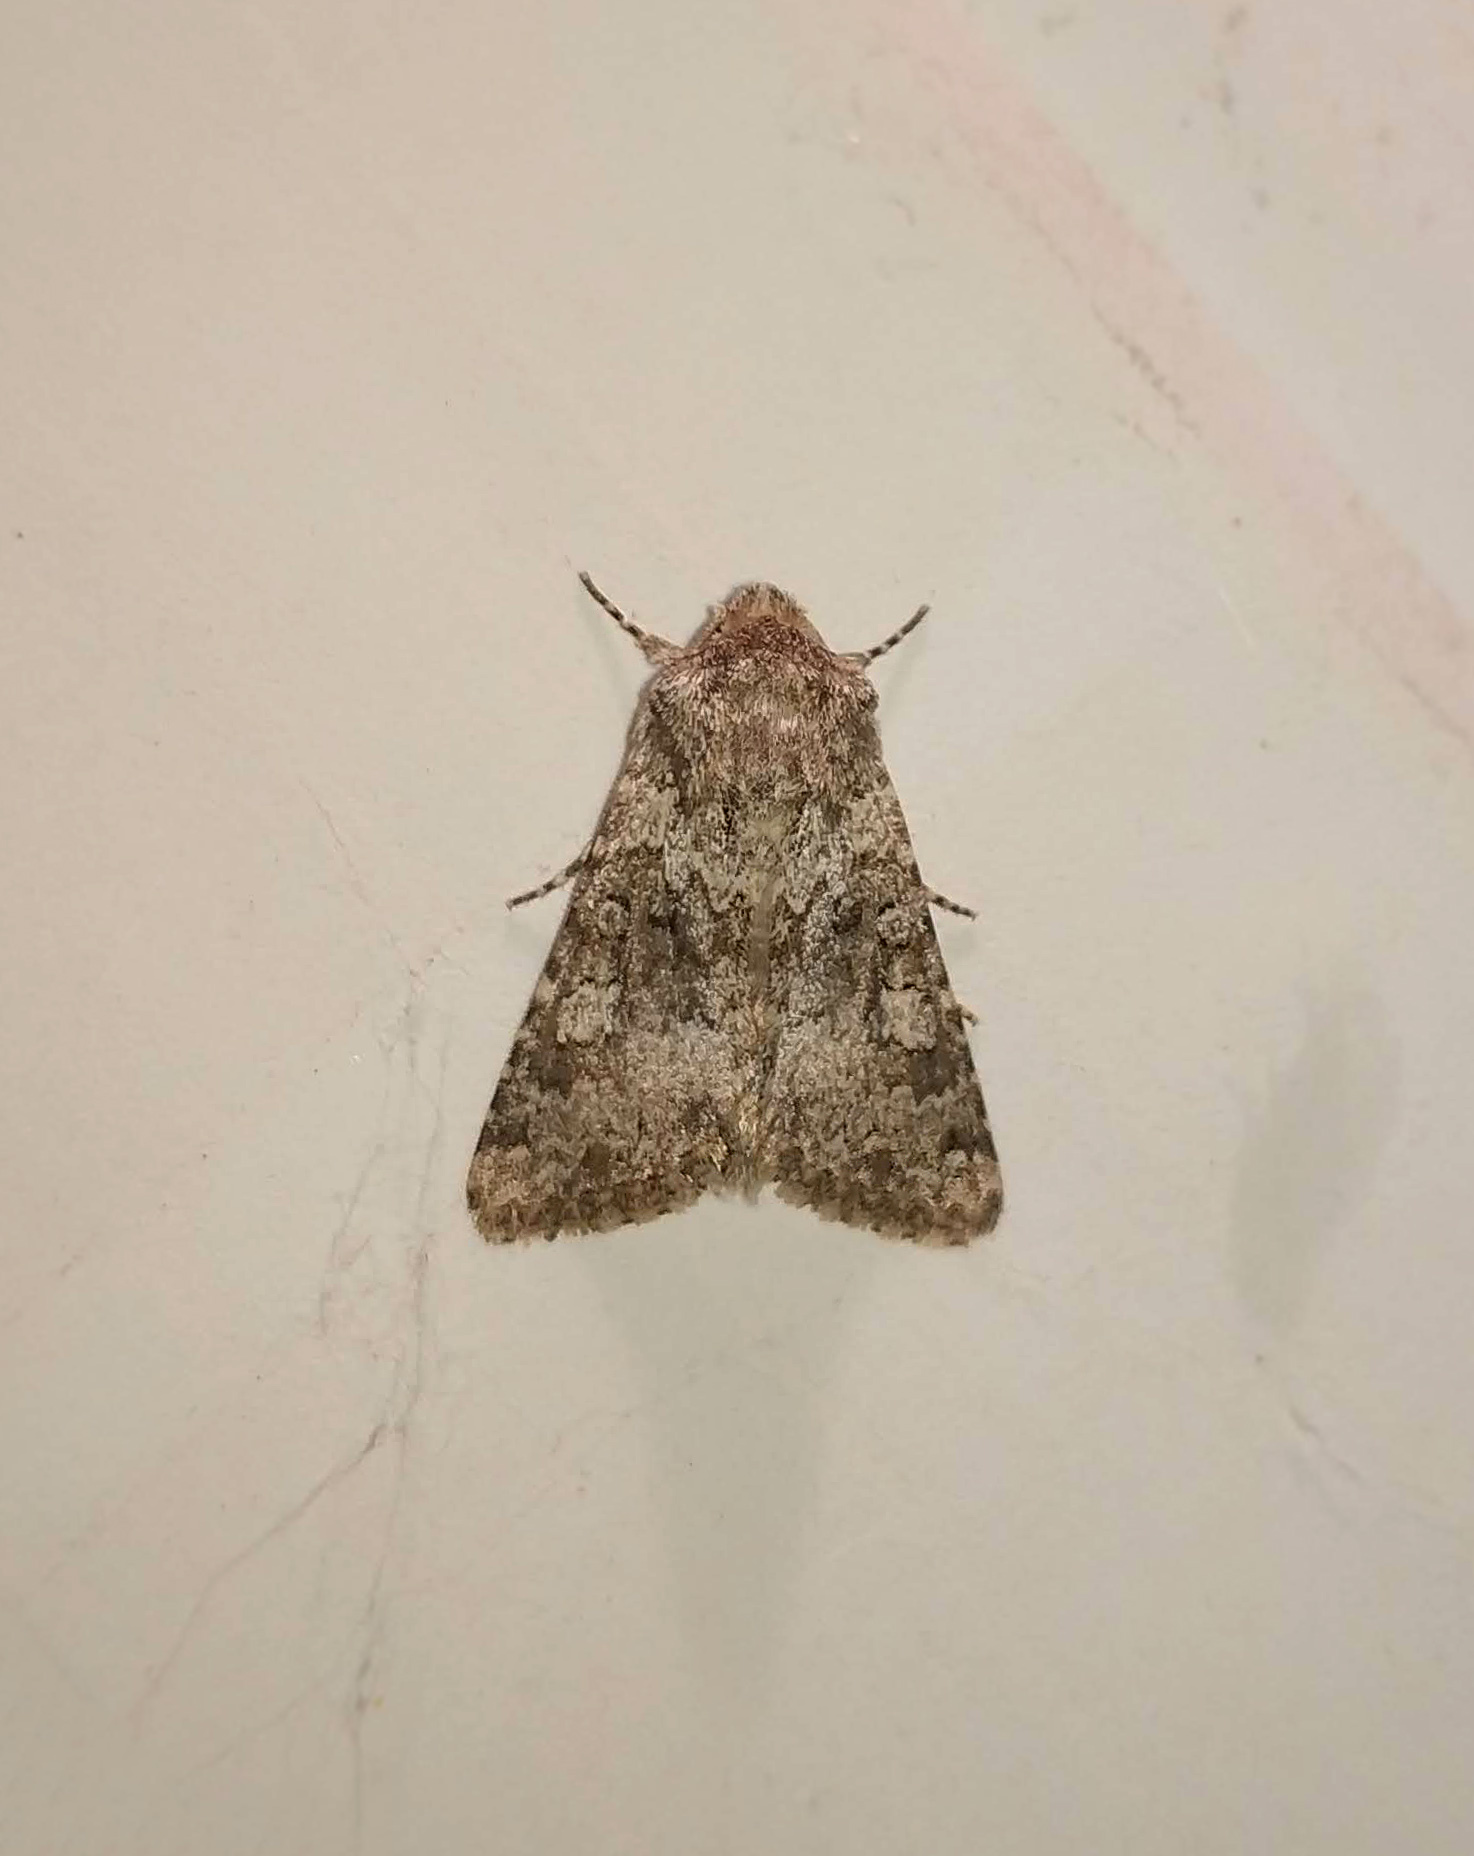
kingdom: Animalia
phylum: Arthropoda
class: Insecta
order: Lepidoptera
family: Noctuidae
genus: Hecatera
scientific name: Hecatera dysodea
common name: Small ranunculus
